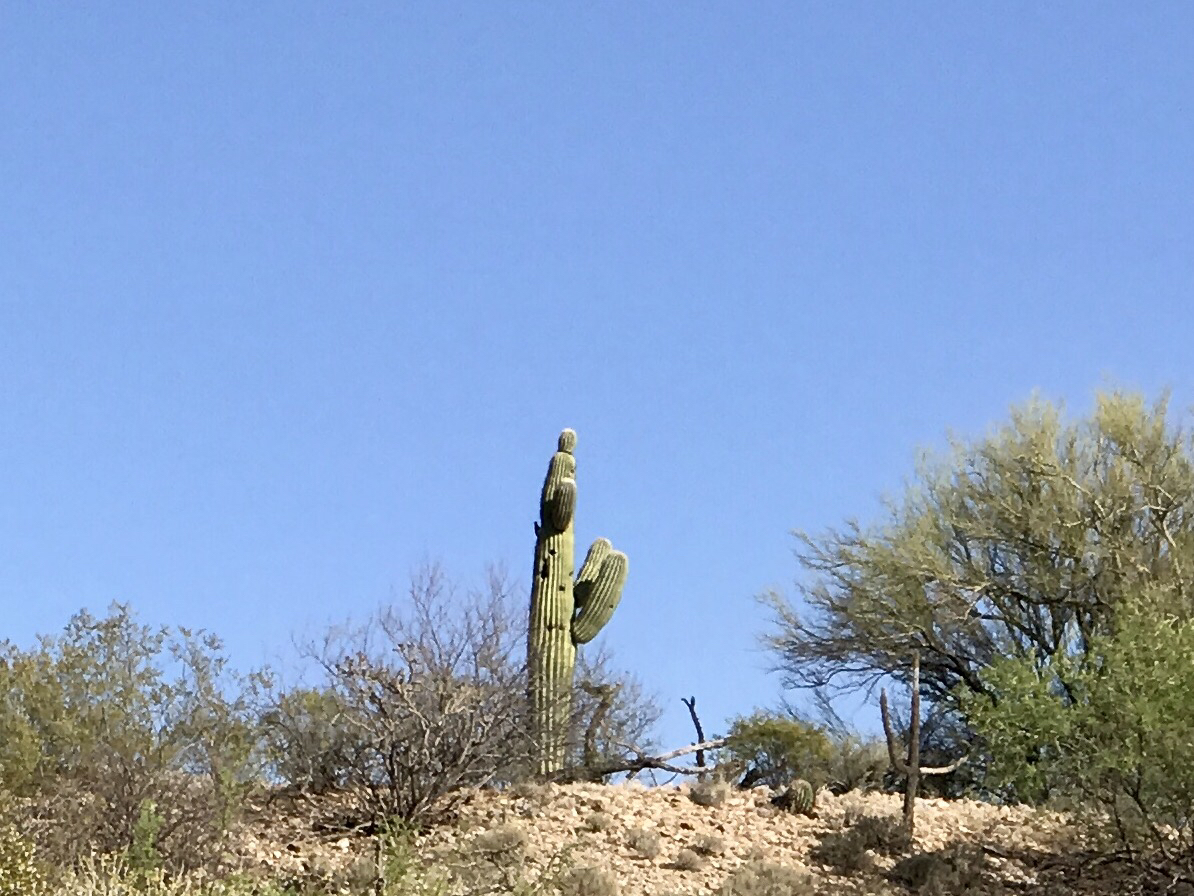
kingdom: Plantae
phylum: Tracheophyta
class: Magnoliopsida
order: Caryophyllales
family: Cactaceae
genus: Carnegiea
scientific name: Carnegiea gigantea
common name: Saguaro
